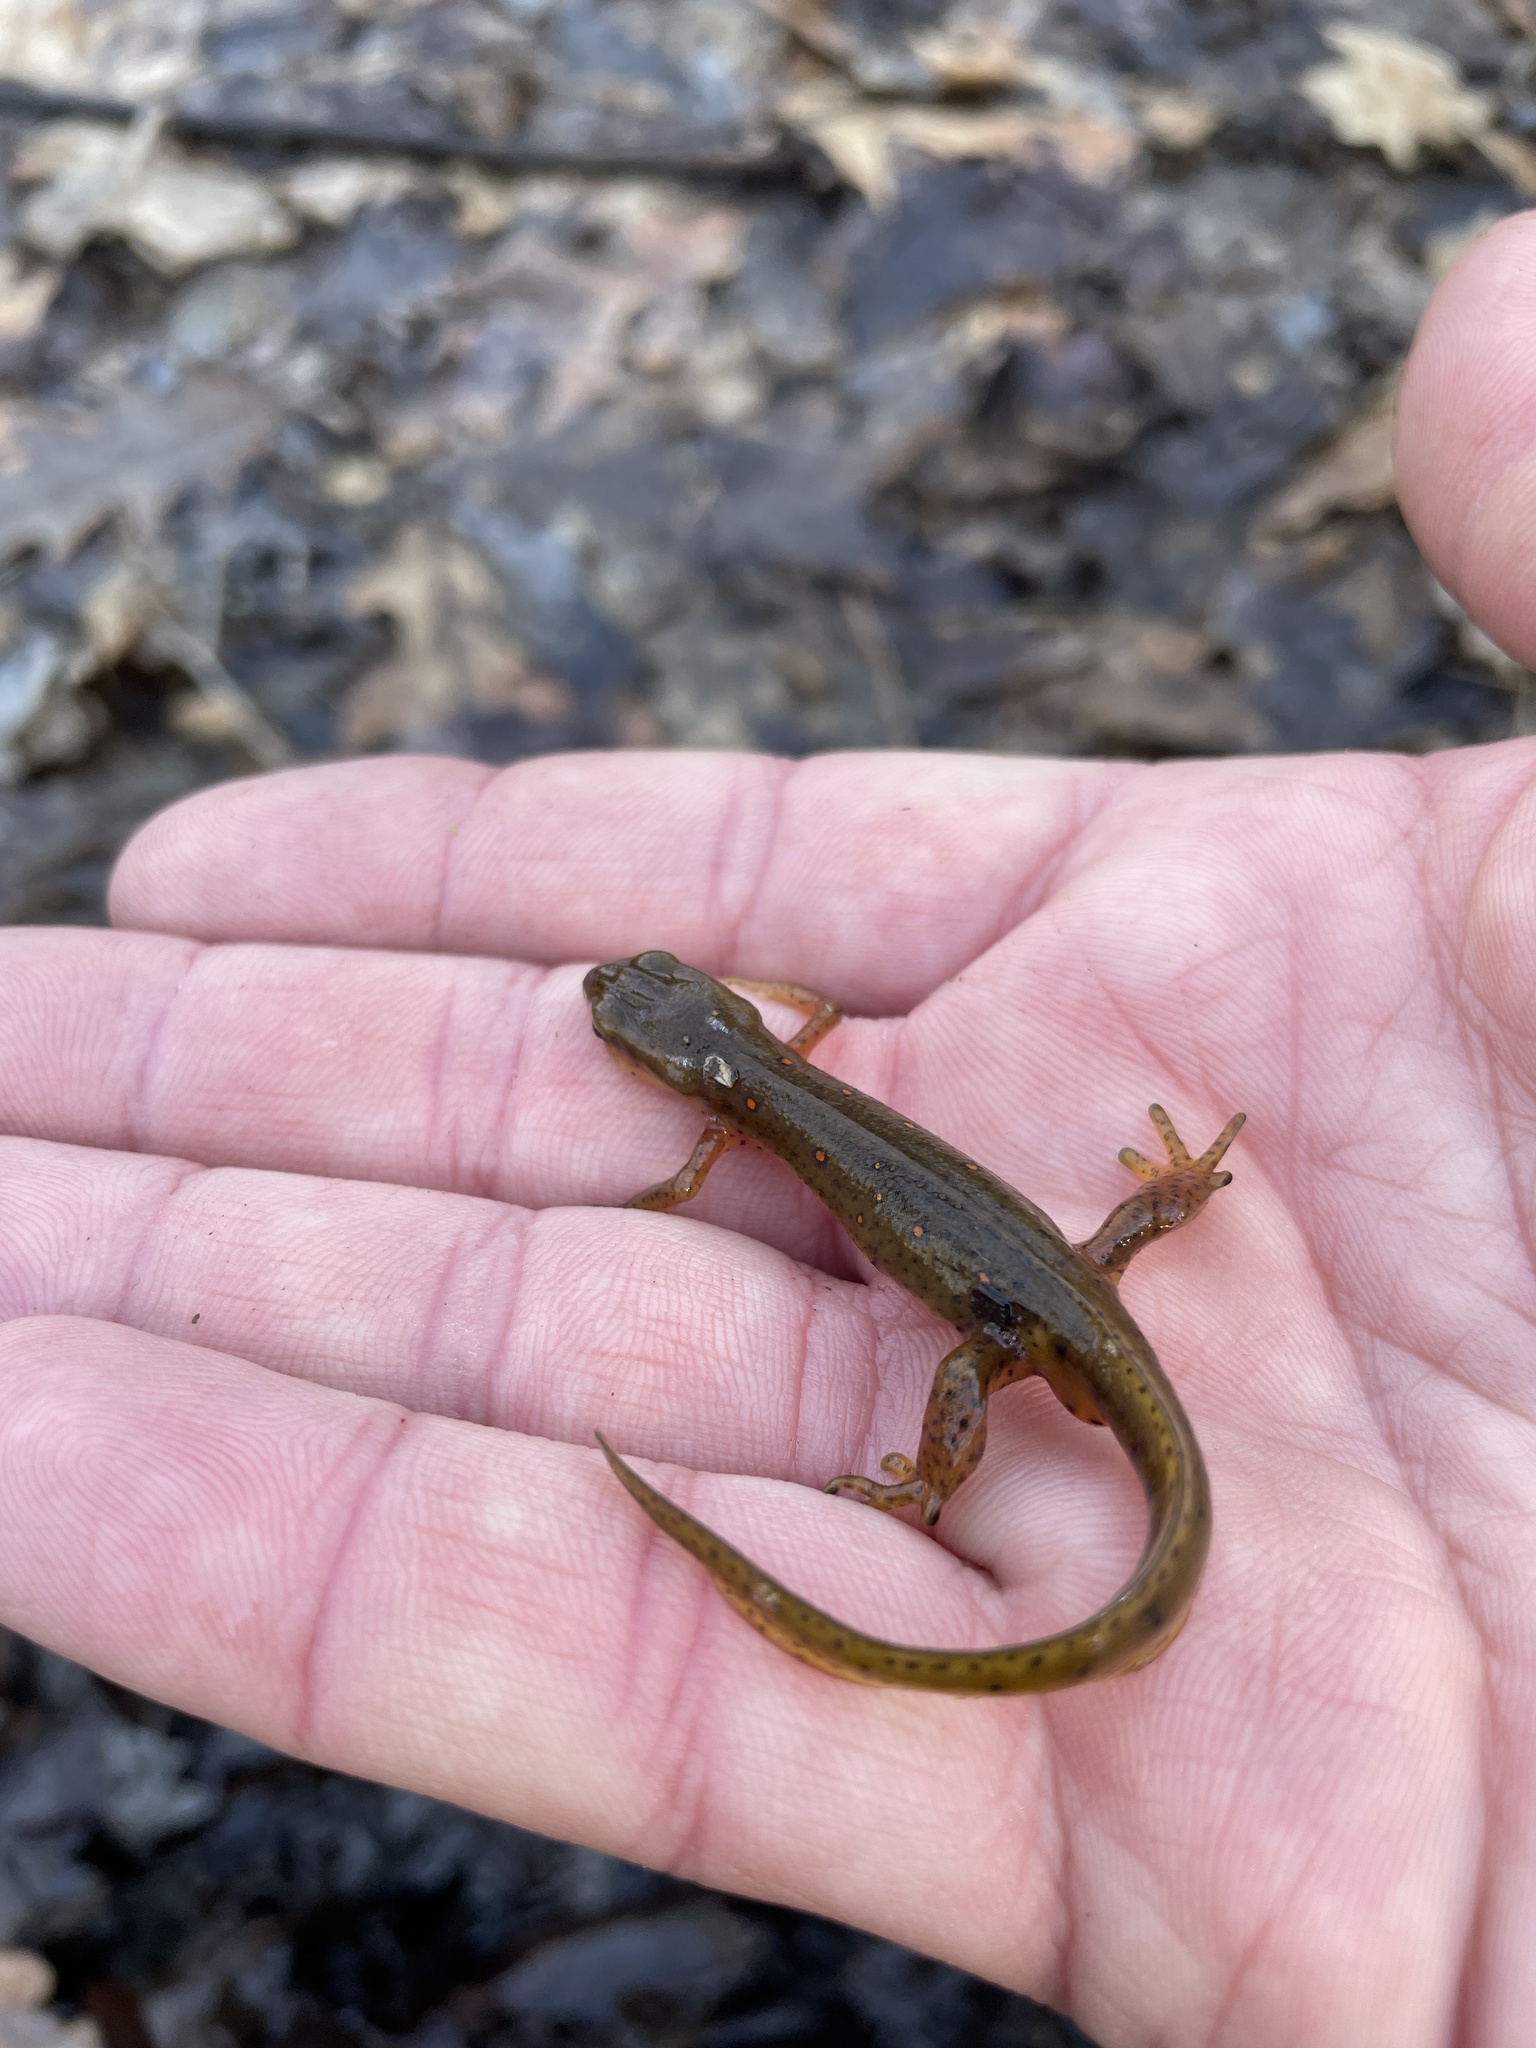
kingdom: Animalia
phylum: Chordata
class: Amphibia
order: Caudata
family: Salamandridae
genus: Notophthalmus
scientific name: Notophthalmus viridescens
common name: Eastern newt
